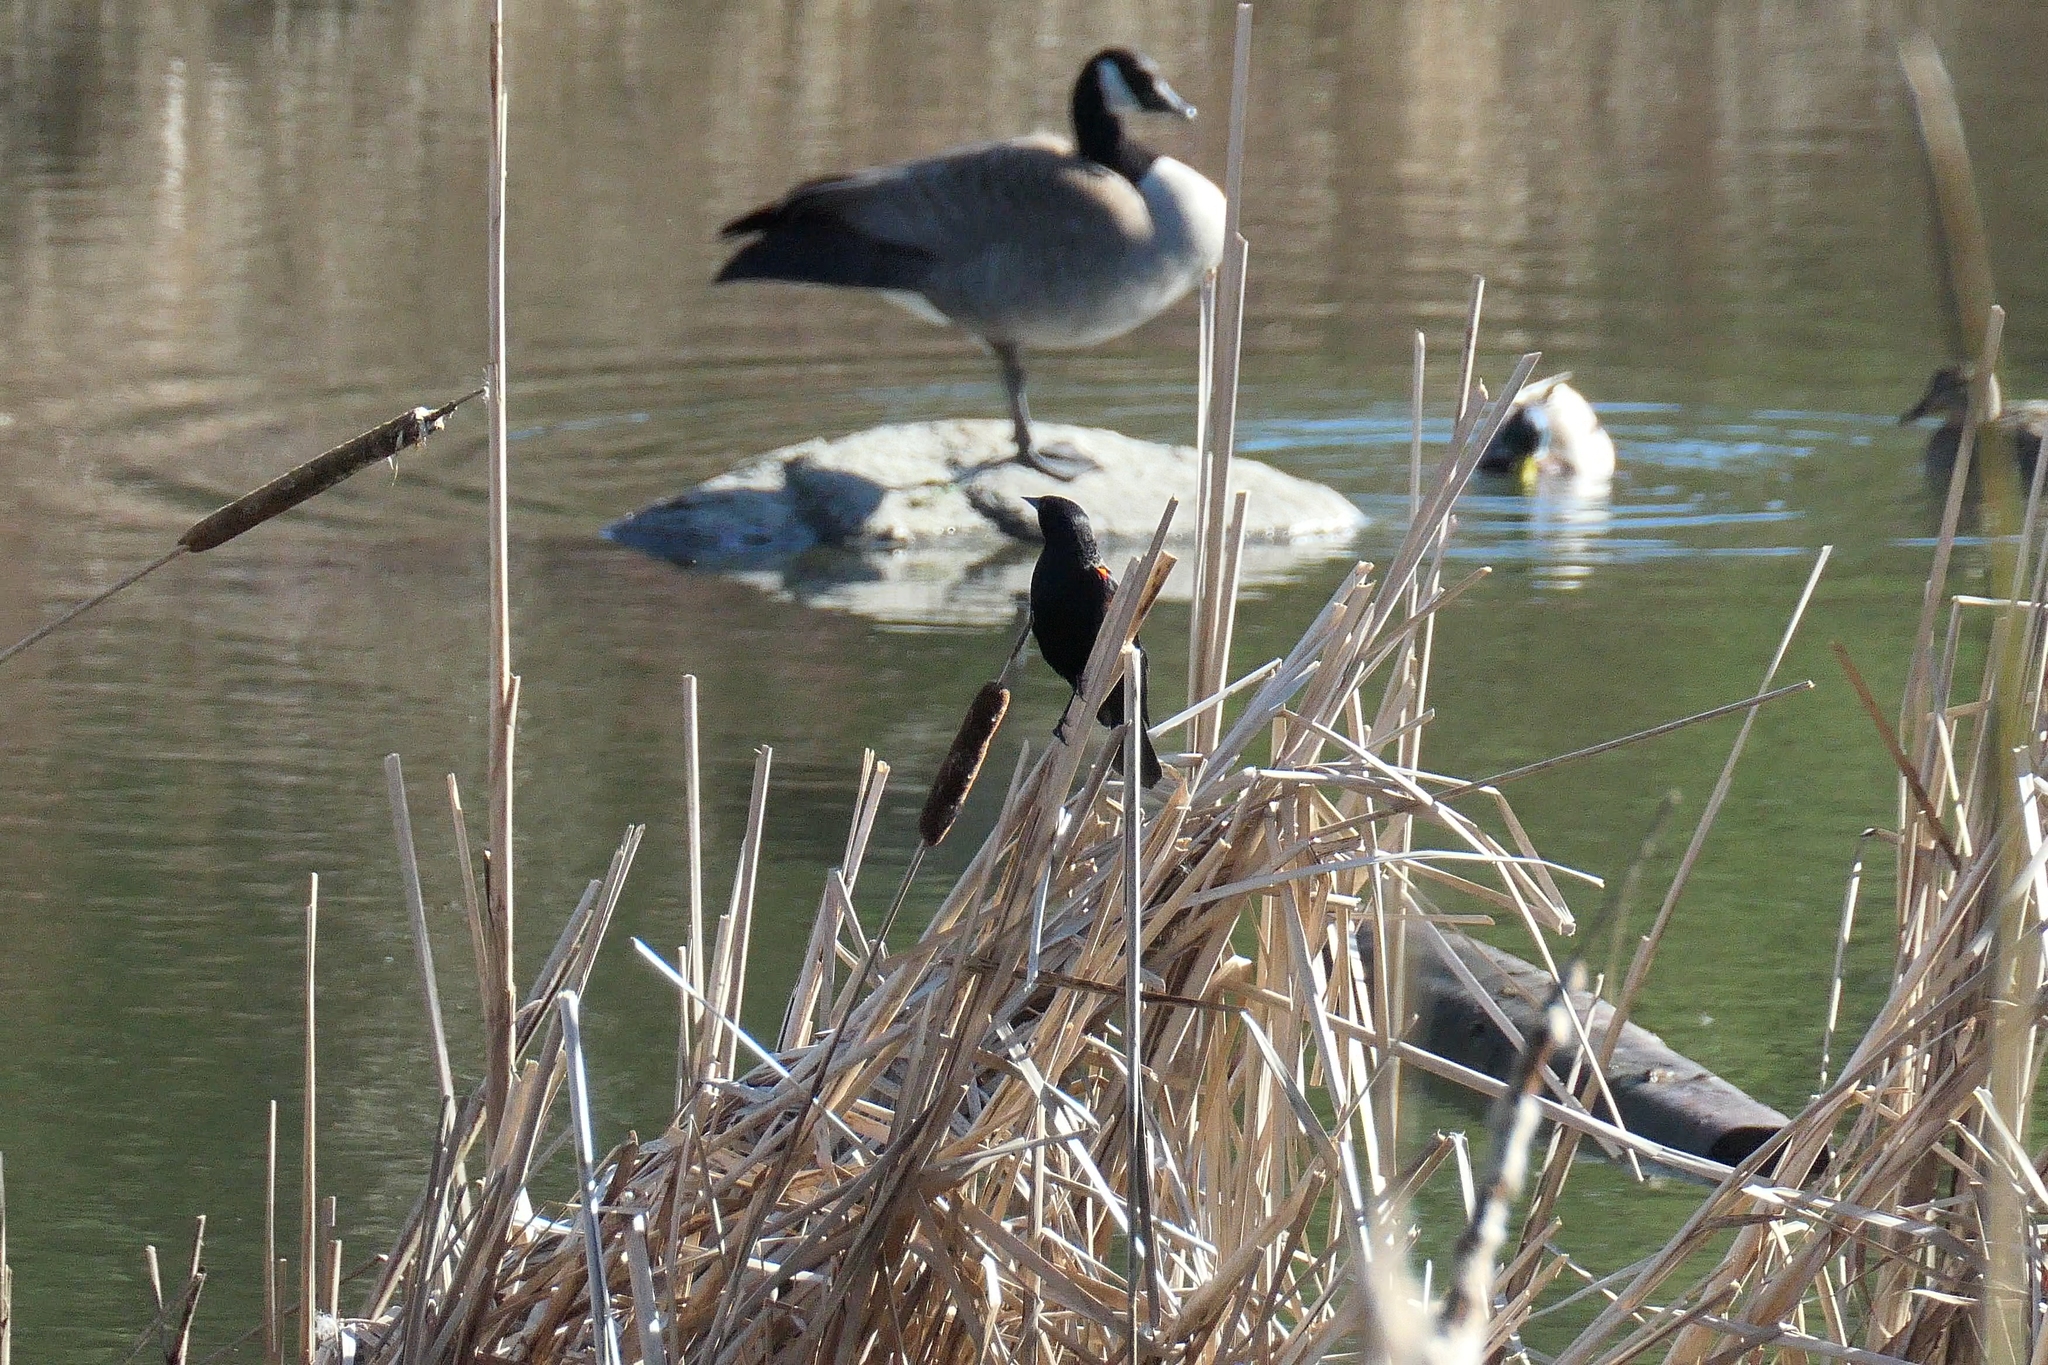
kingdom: Animalia
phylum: Chordata
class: Aves
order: Passeriformes
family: Icteridae
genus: Agelaius
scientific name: Agelaius phoeniceus
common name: Red-winged blackbird
